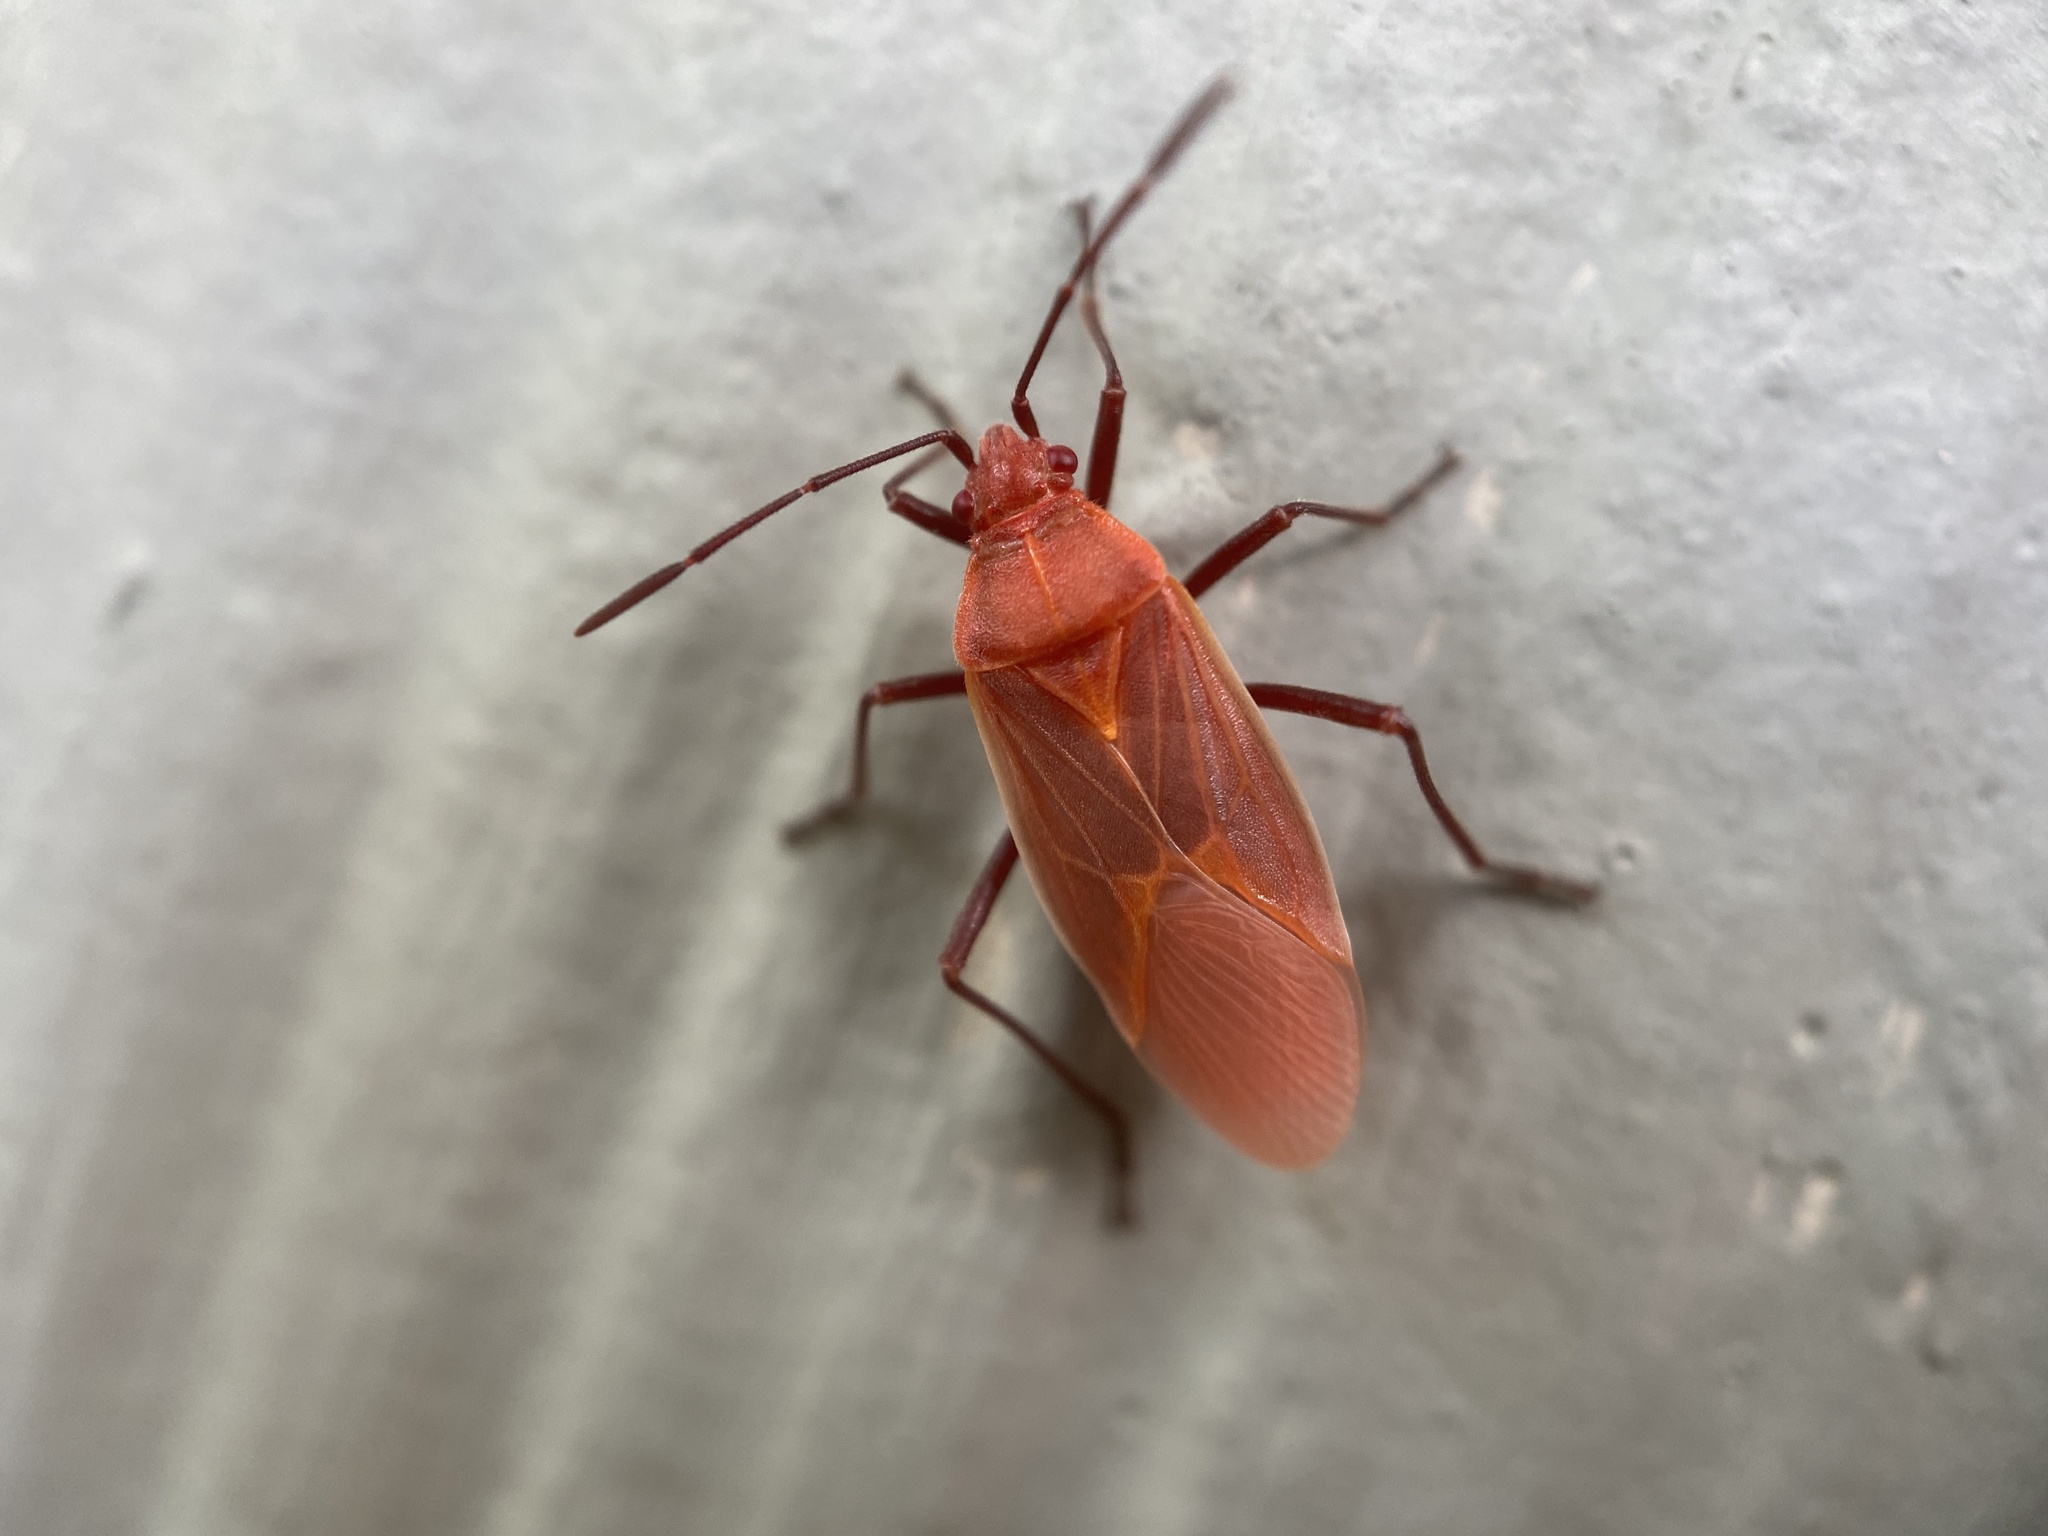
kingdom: Animalia
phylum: Arthropoda
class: Insecta
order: Hemiptera
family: Rhopalidae
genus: Boisea
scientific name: Boisea trivittata
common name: Boxelder bug
